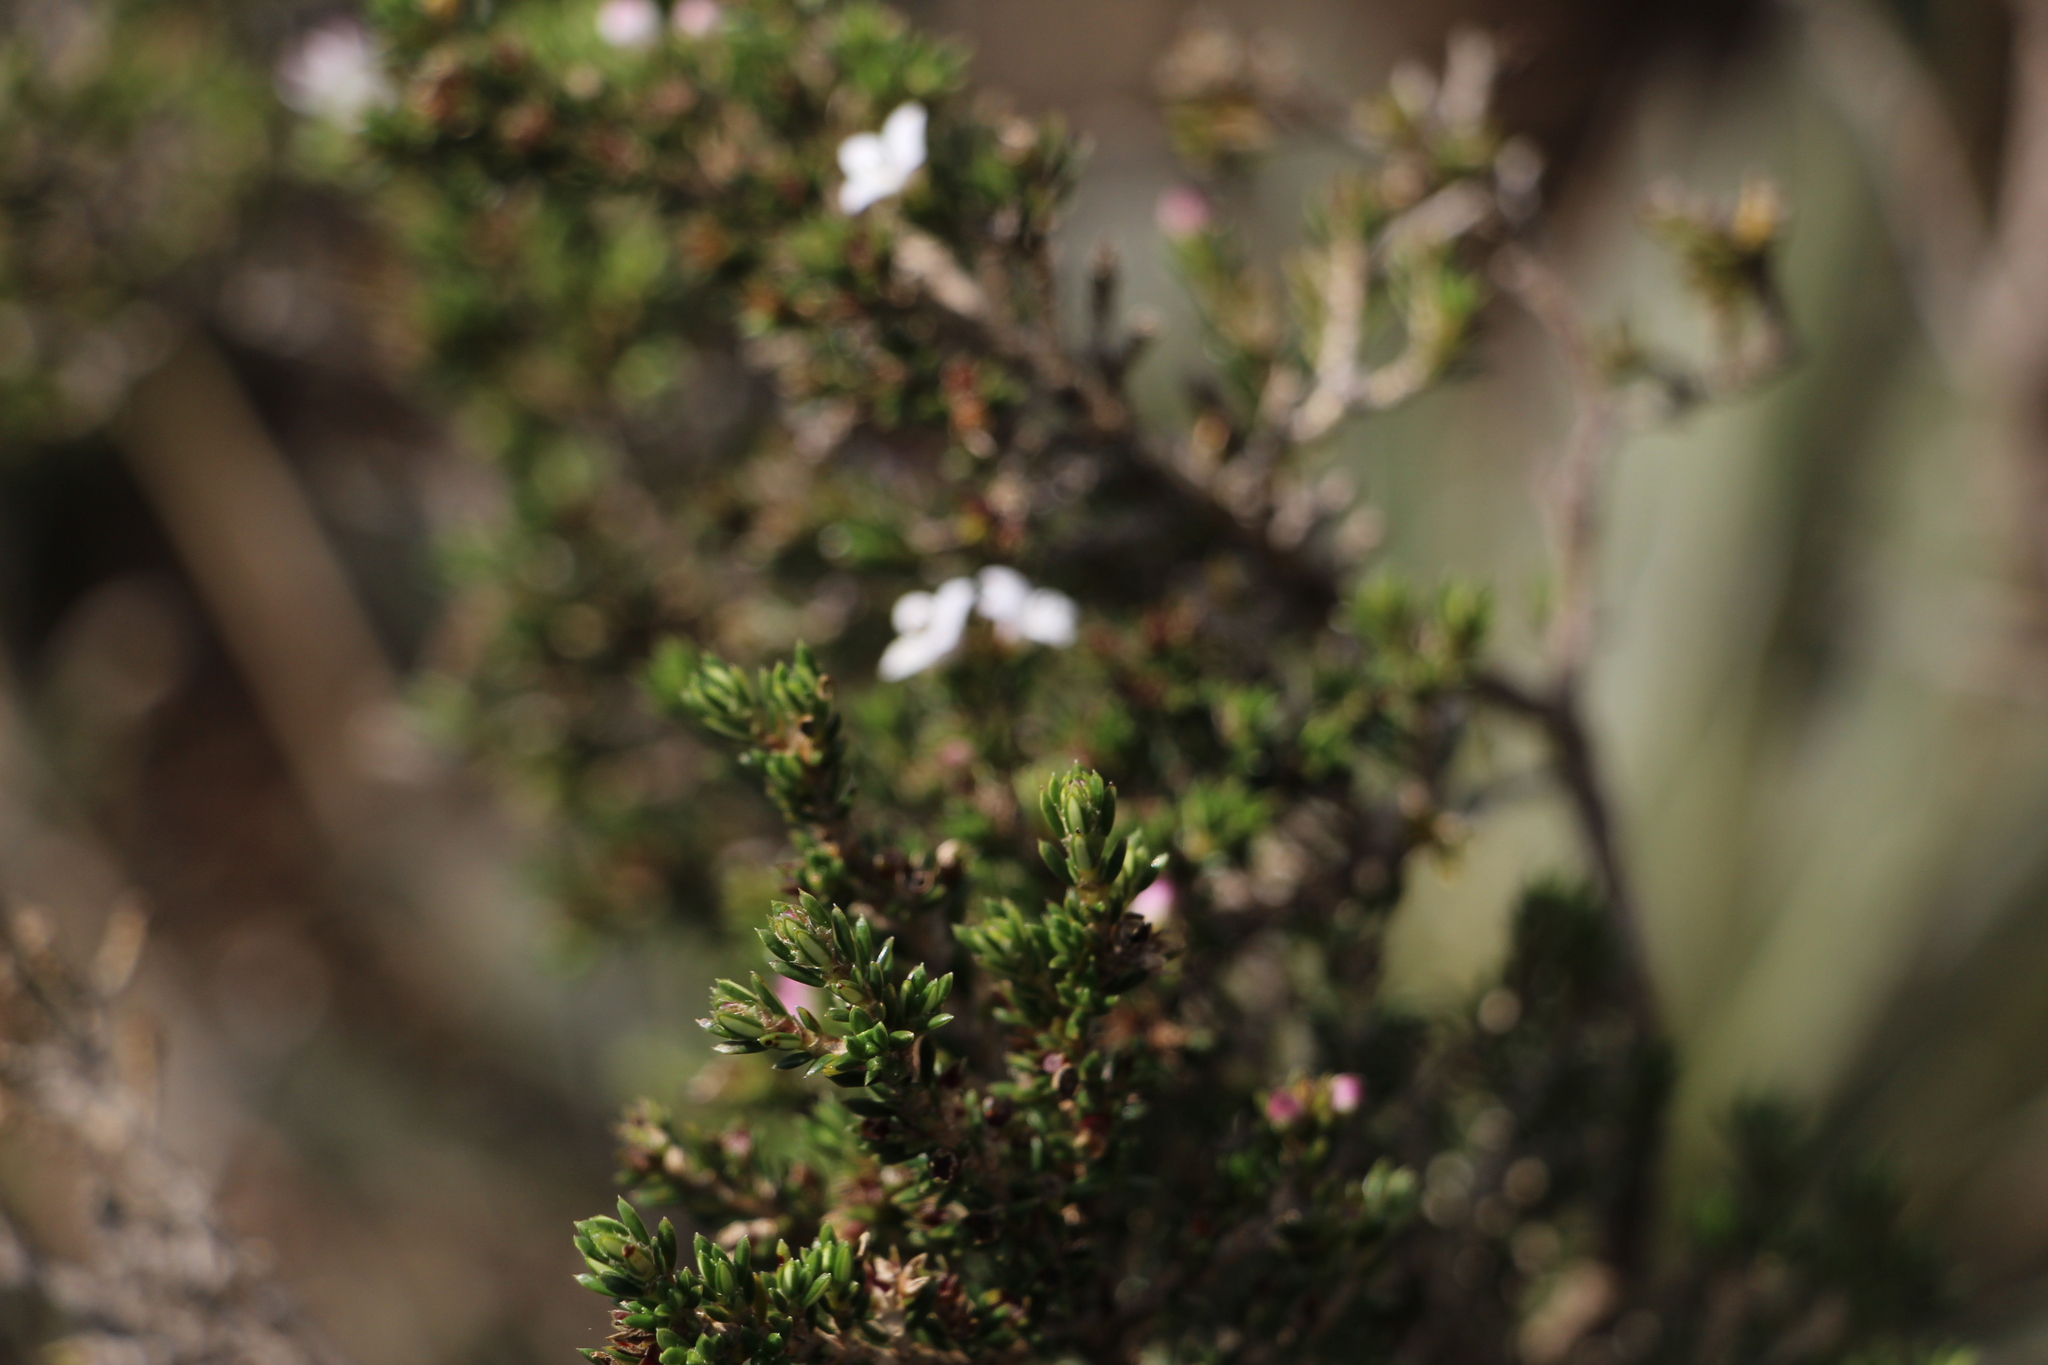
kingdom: Plantae
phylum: Tracheophyta
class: Magnoliopsida
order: Gentianales
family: Rubiaceae
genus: Arcytophyllum
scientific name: Arcytophyllum nitidum
